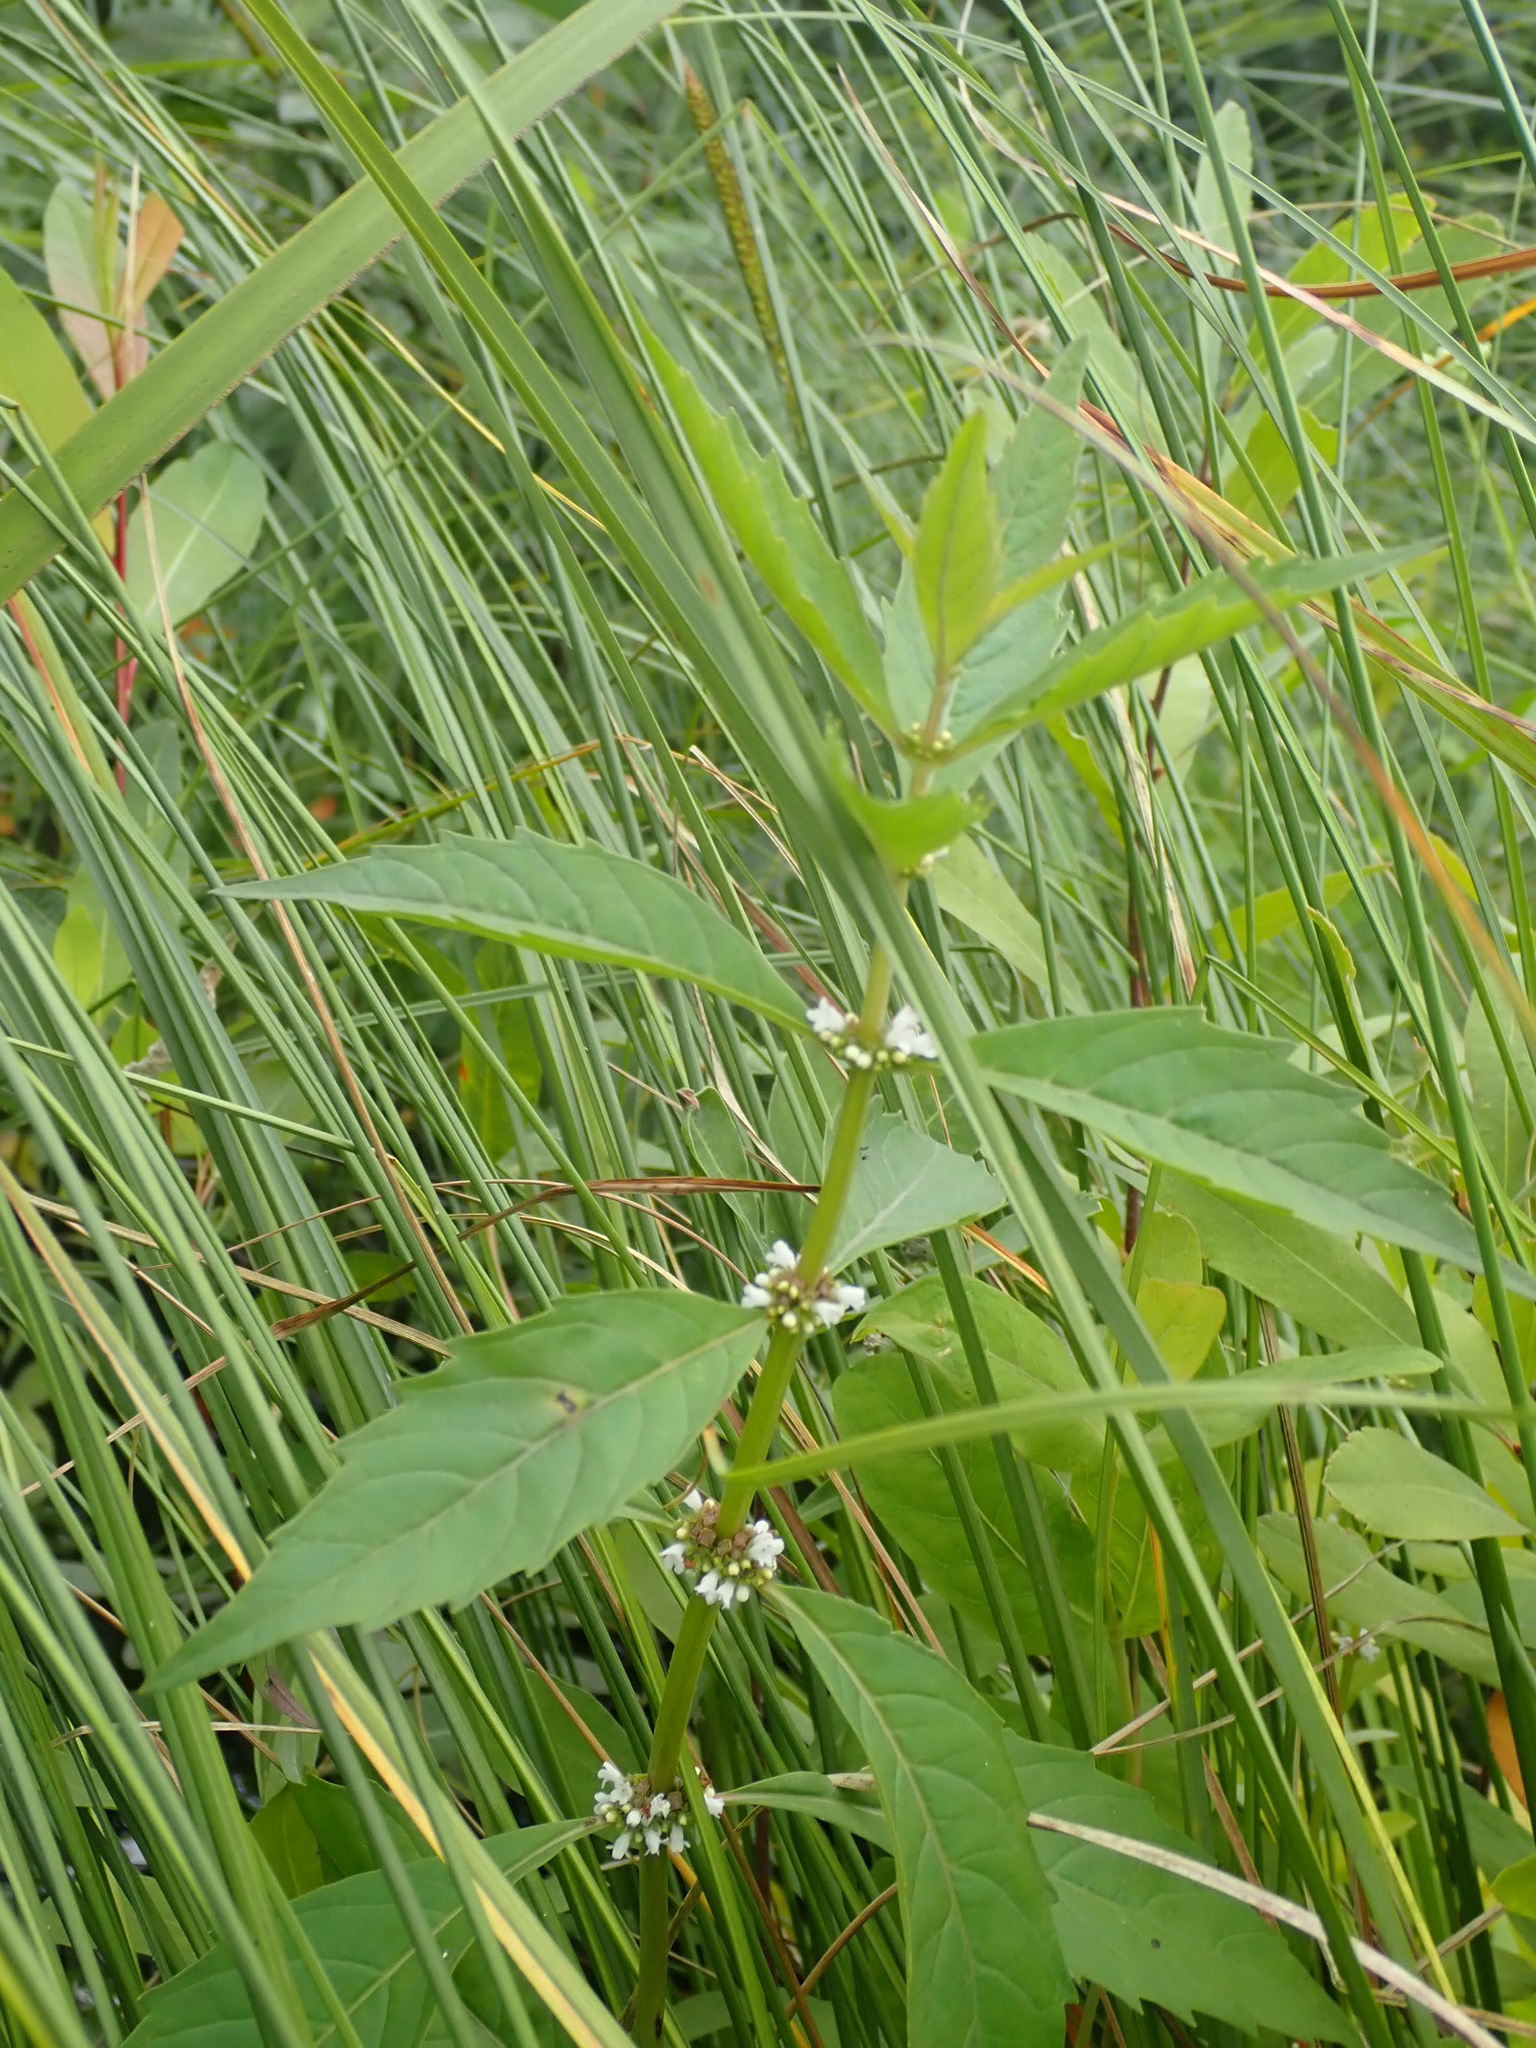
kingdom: Plantae
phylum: Tracheophyta
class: Magnoliopsida
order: Lamiales
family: Lamiaceae
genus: Lycopus
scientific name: Lycopus uniflorus
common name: Northern bugleweed
